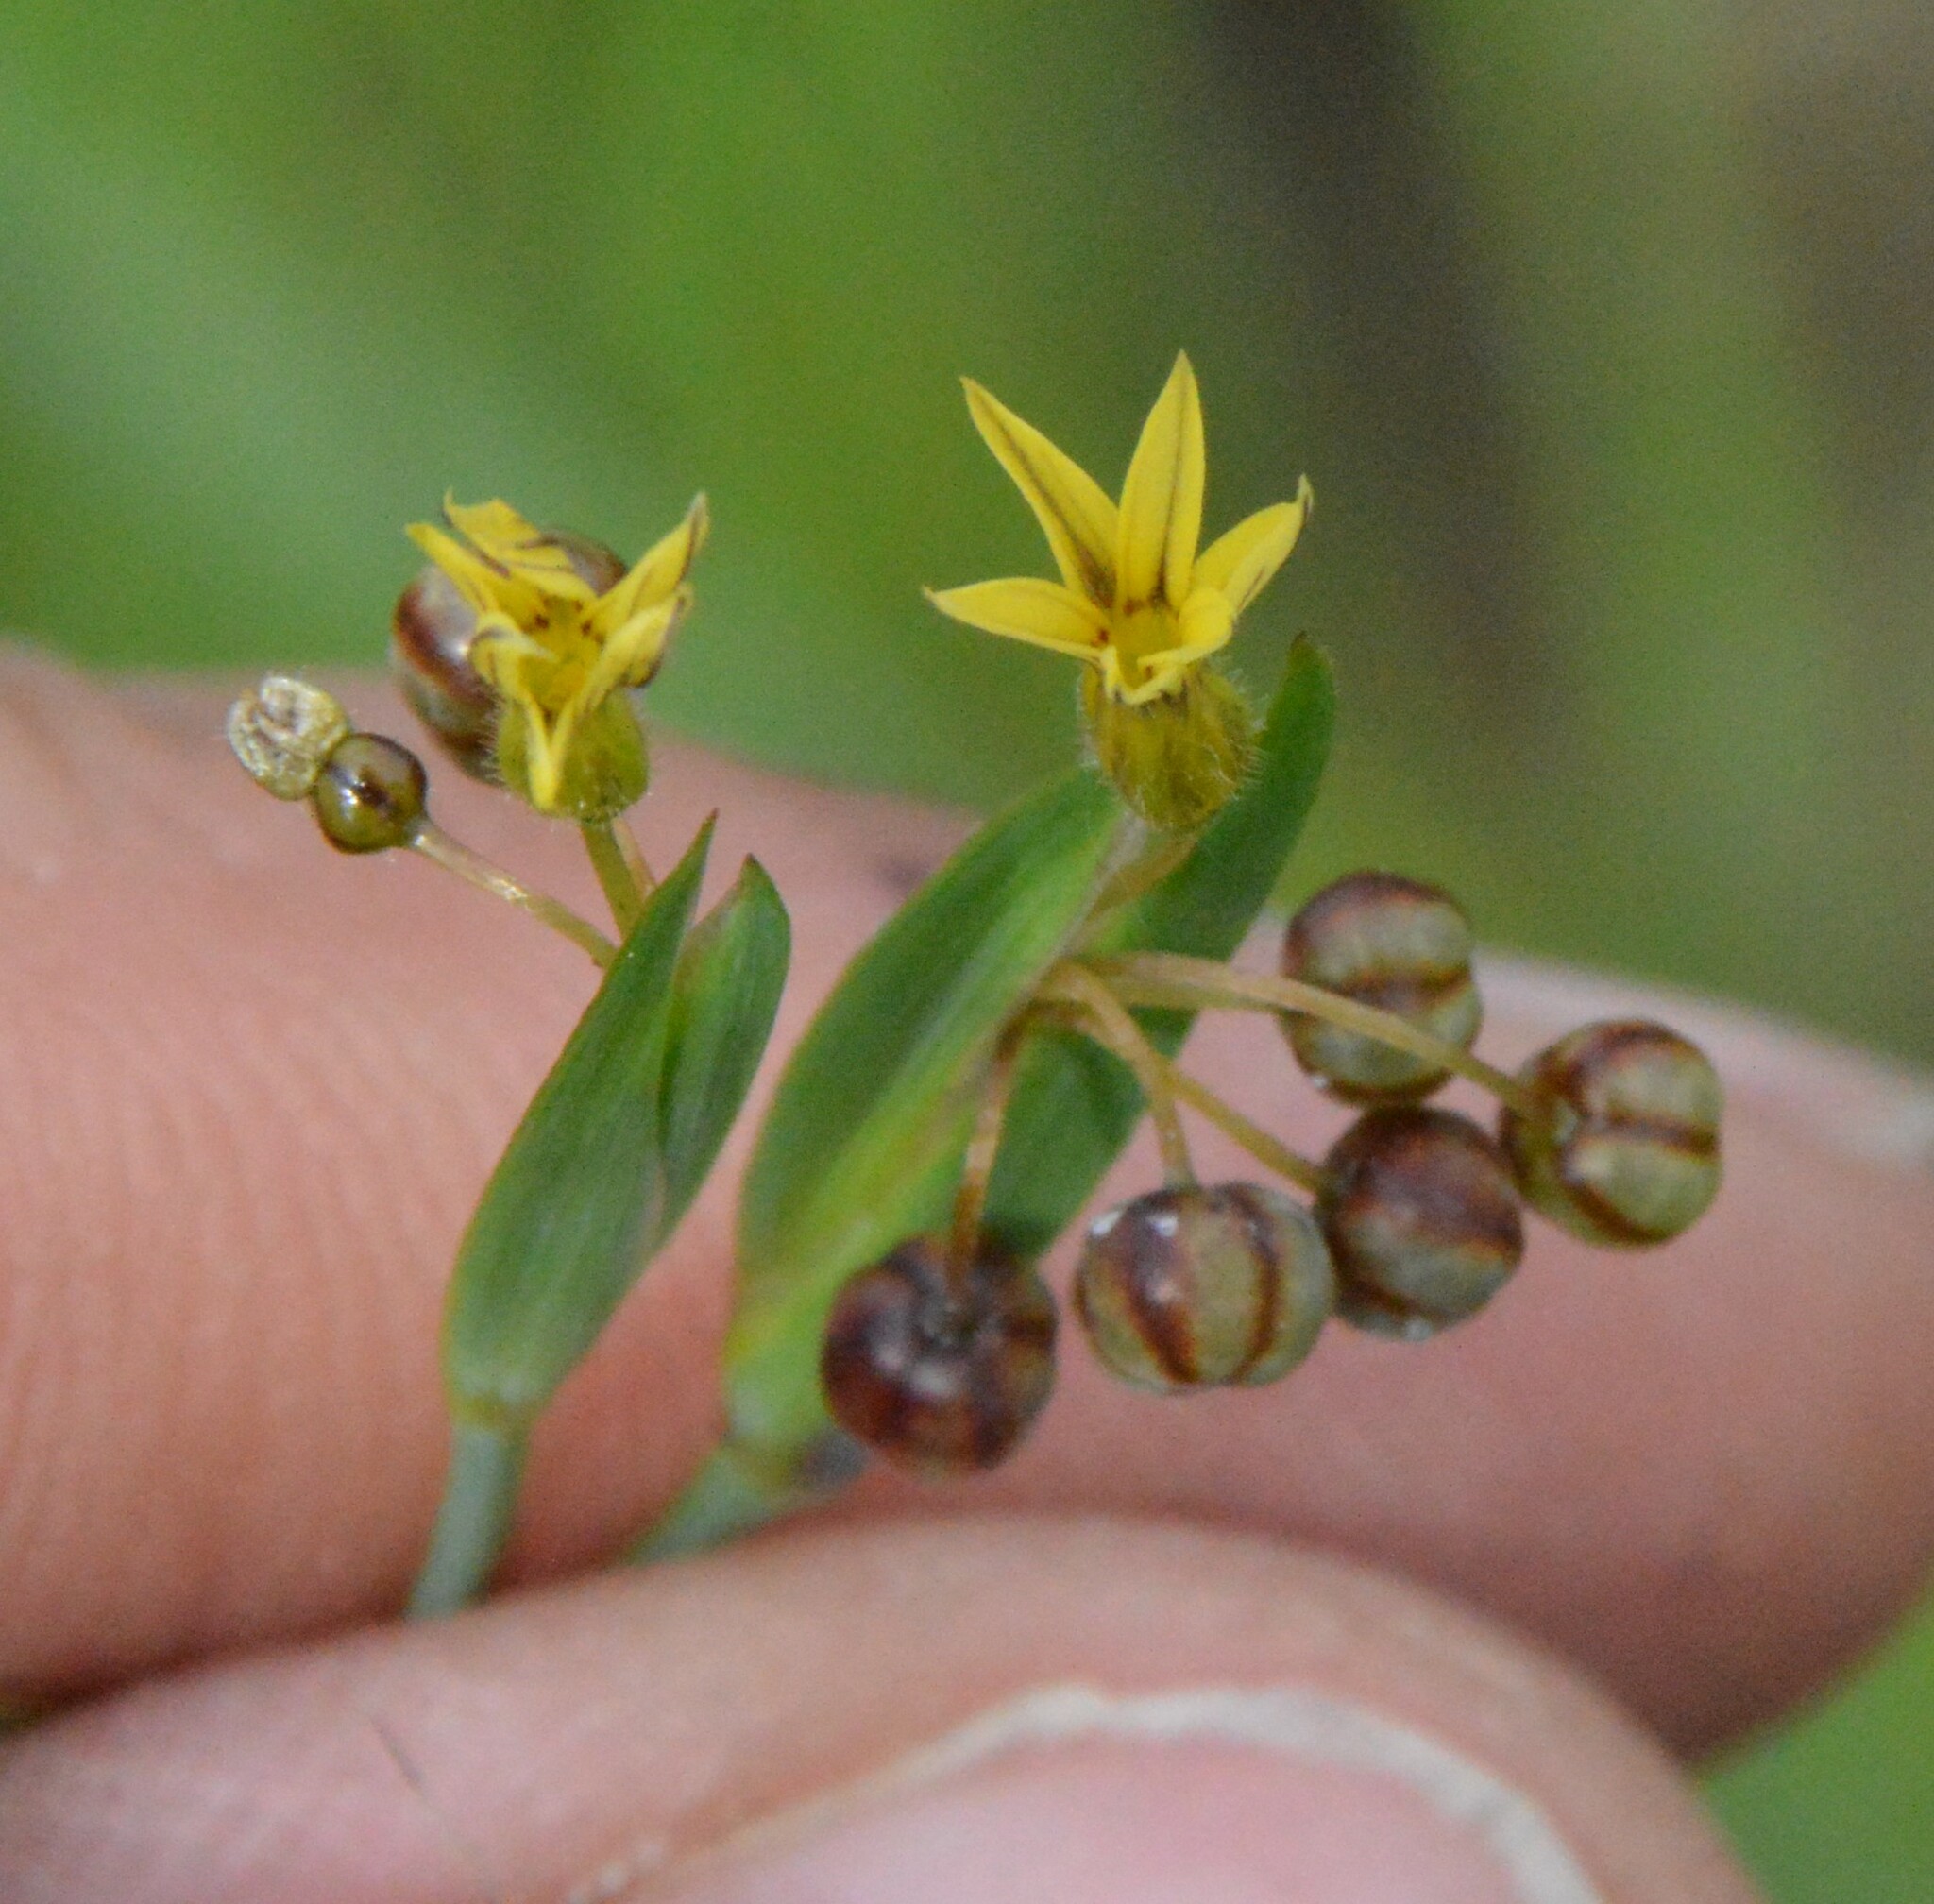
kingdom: Plantae
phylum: Tracheophyta
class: Liliopsida
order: Asparagales
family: Iridaceae
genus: Sisyrinchium
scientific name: Sisyrinchium micranthum
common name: Bermuda pigroot
